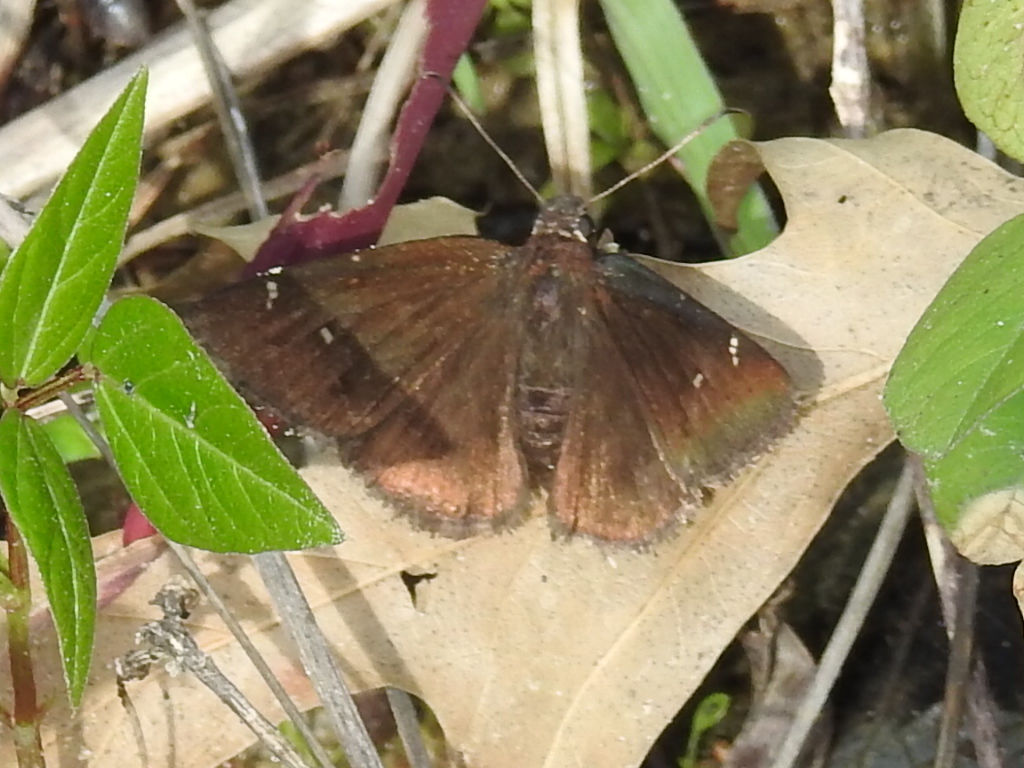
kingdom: Animalia
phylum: Arthropoda
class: Insecta
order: Lepidoptera
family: Hesperiidae
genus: Thorybes
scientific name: Thorybes pylades
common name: Northern cloudywing
